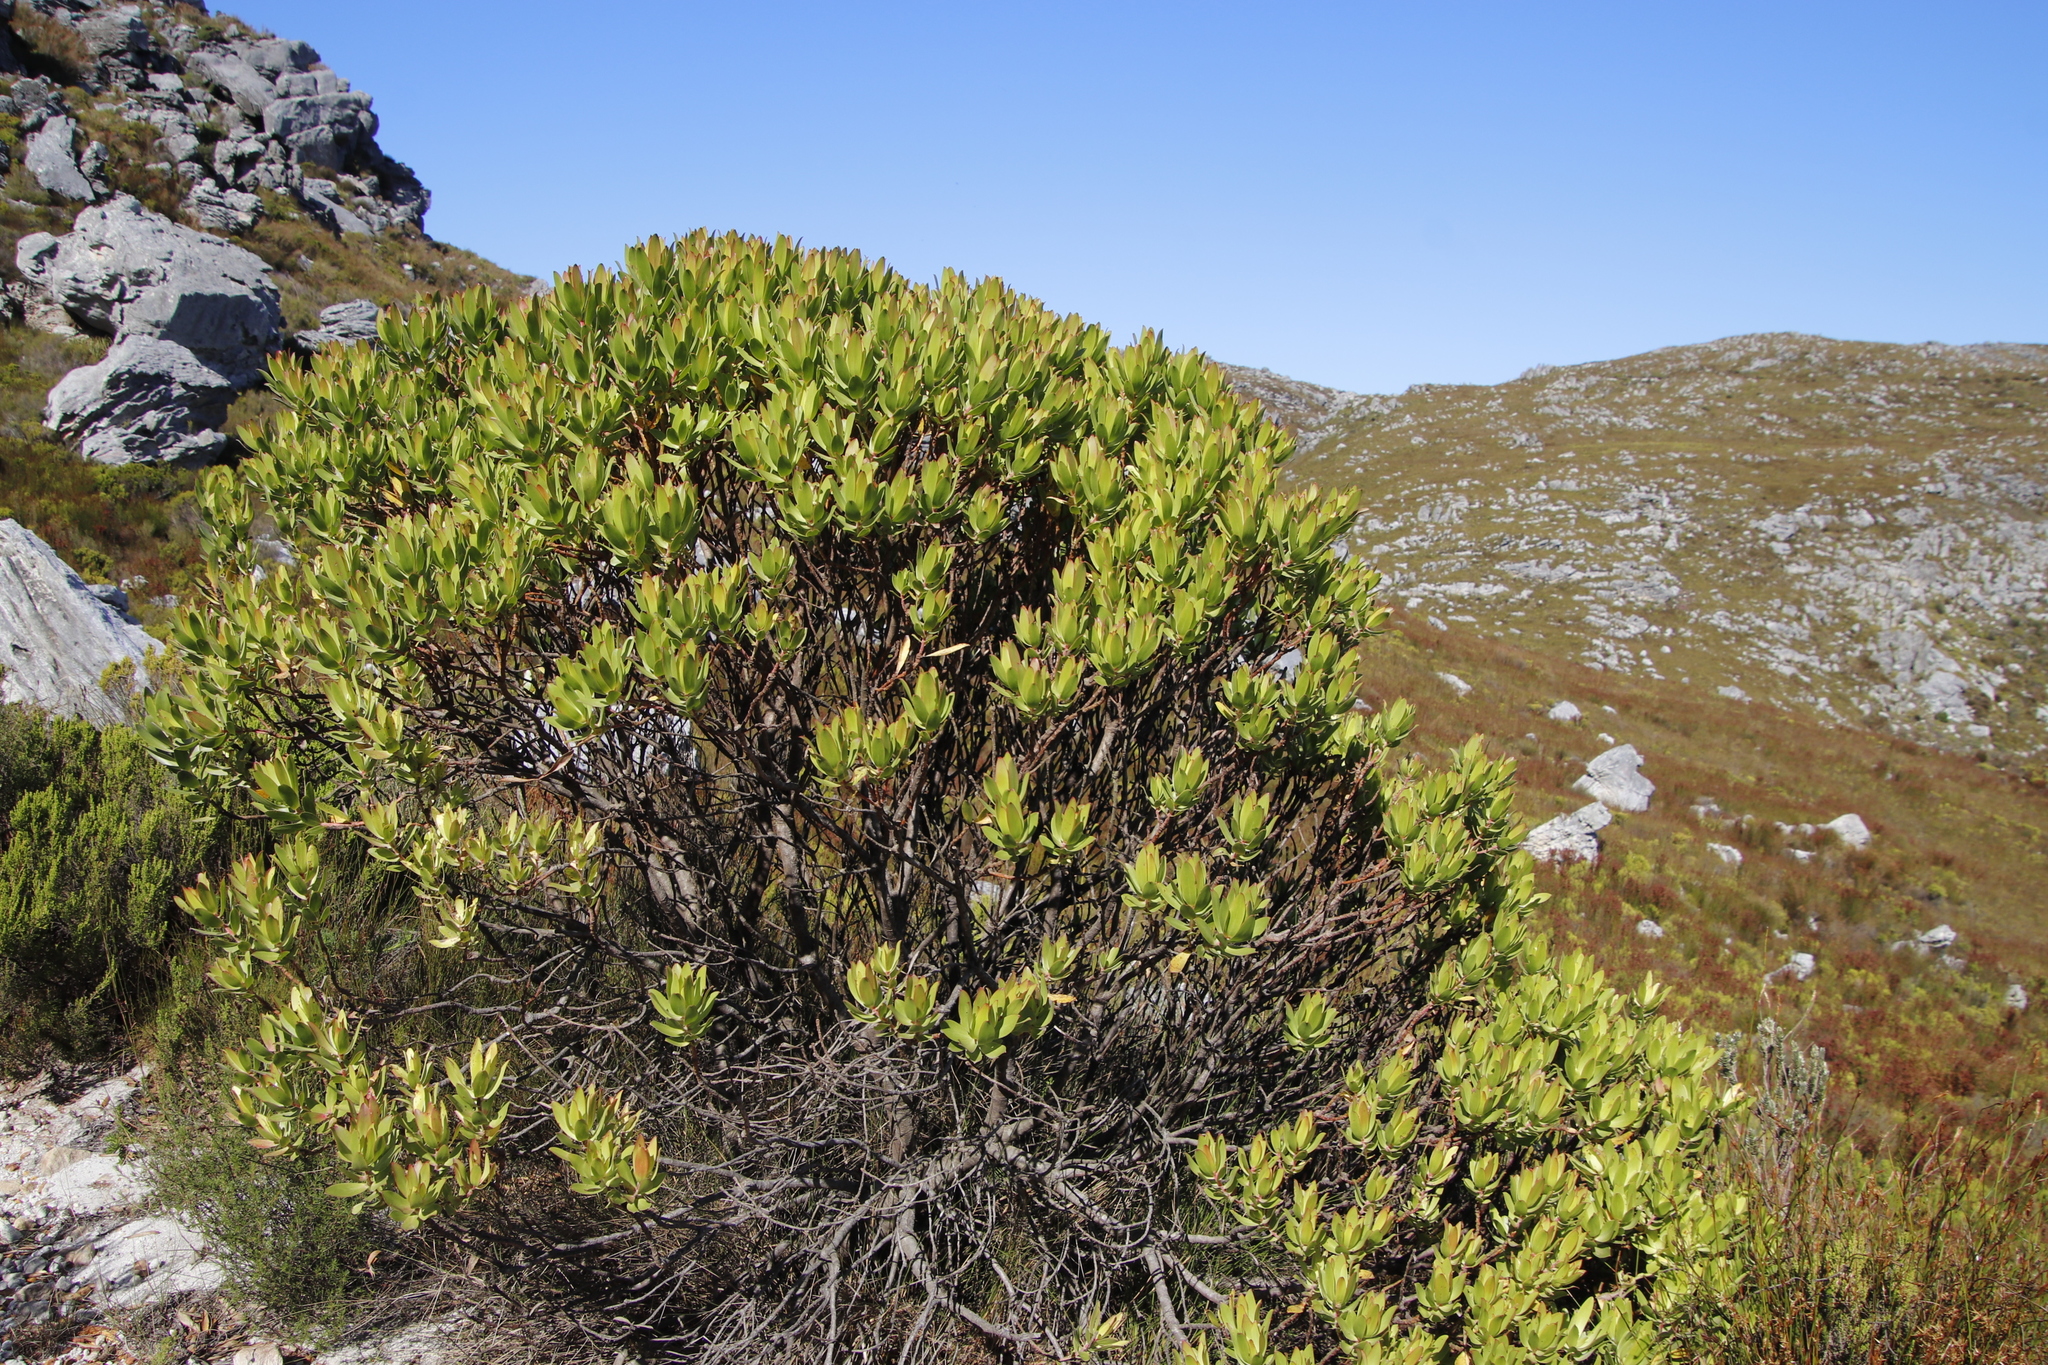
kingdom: Plantae
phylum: Tracheophyta
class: Magnoliopsida
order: Proteales
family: Proteaceae
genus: Leucadendron
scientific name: Leucadendron laureolum
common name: Golden sunshinebush
